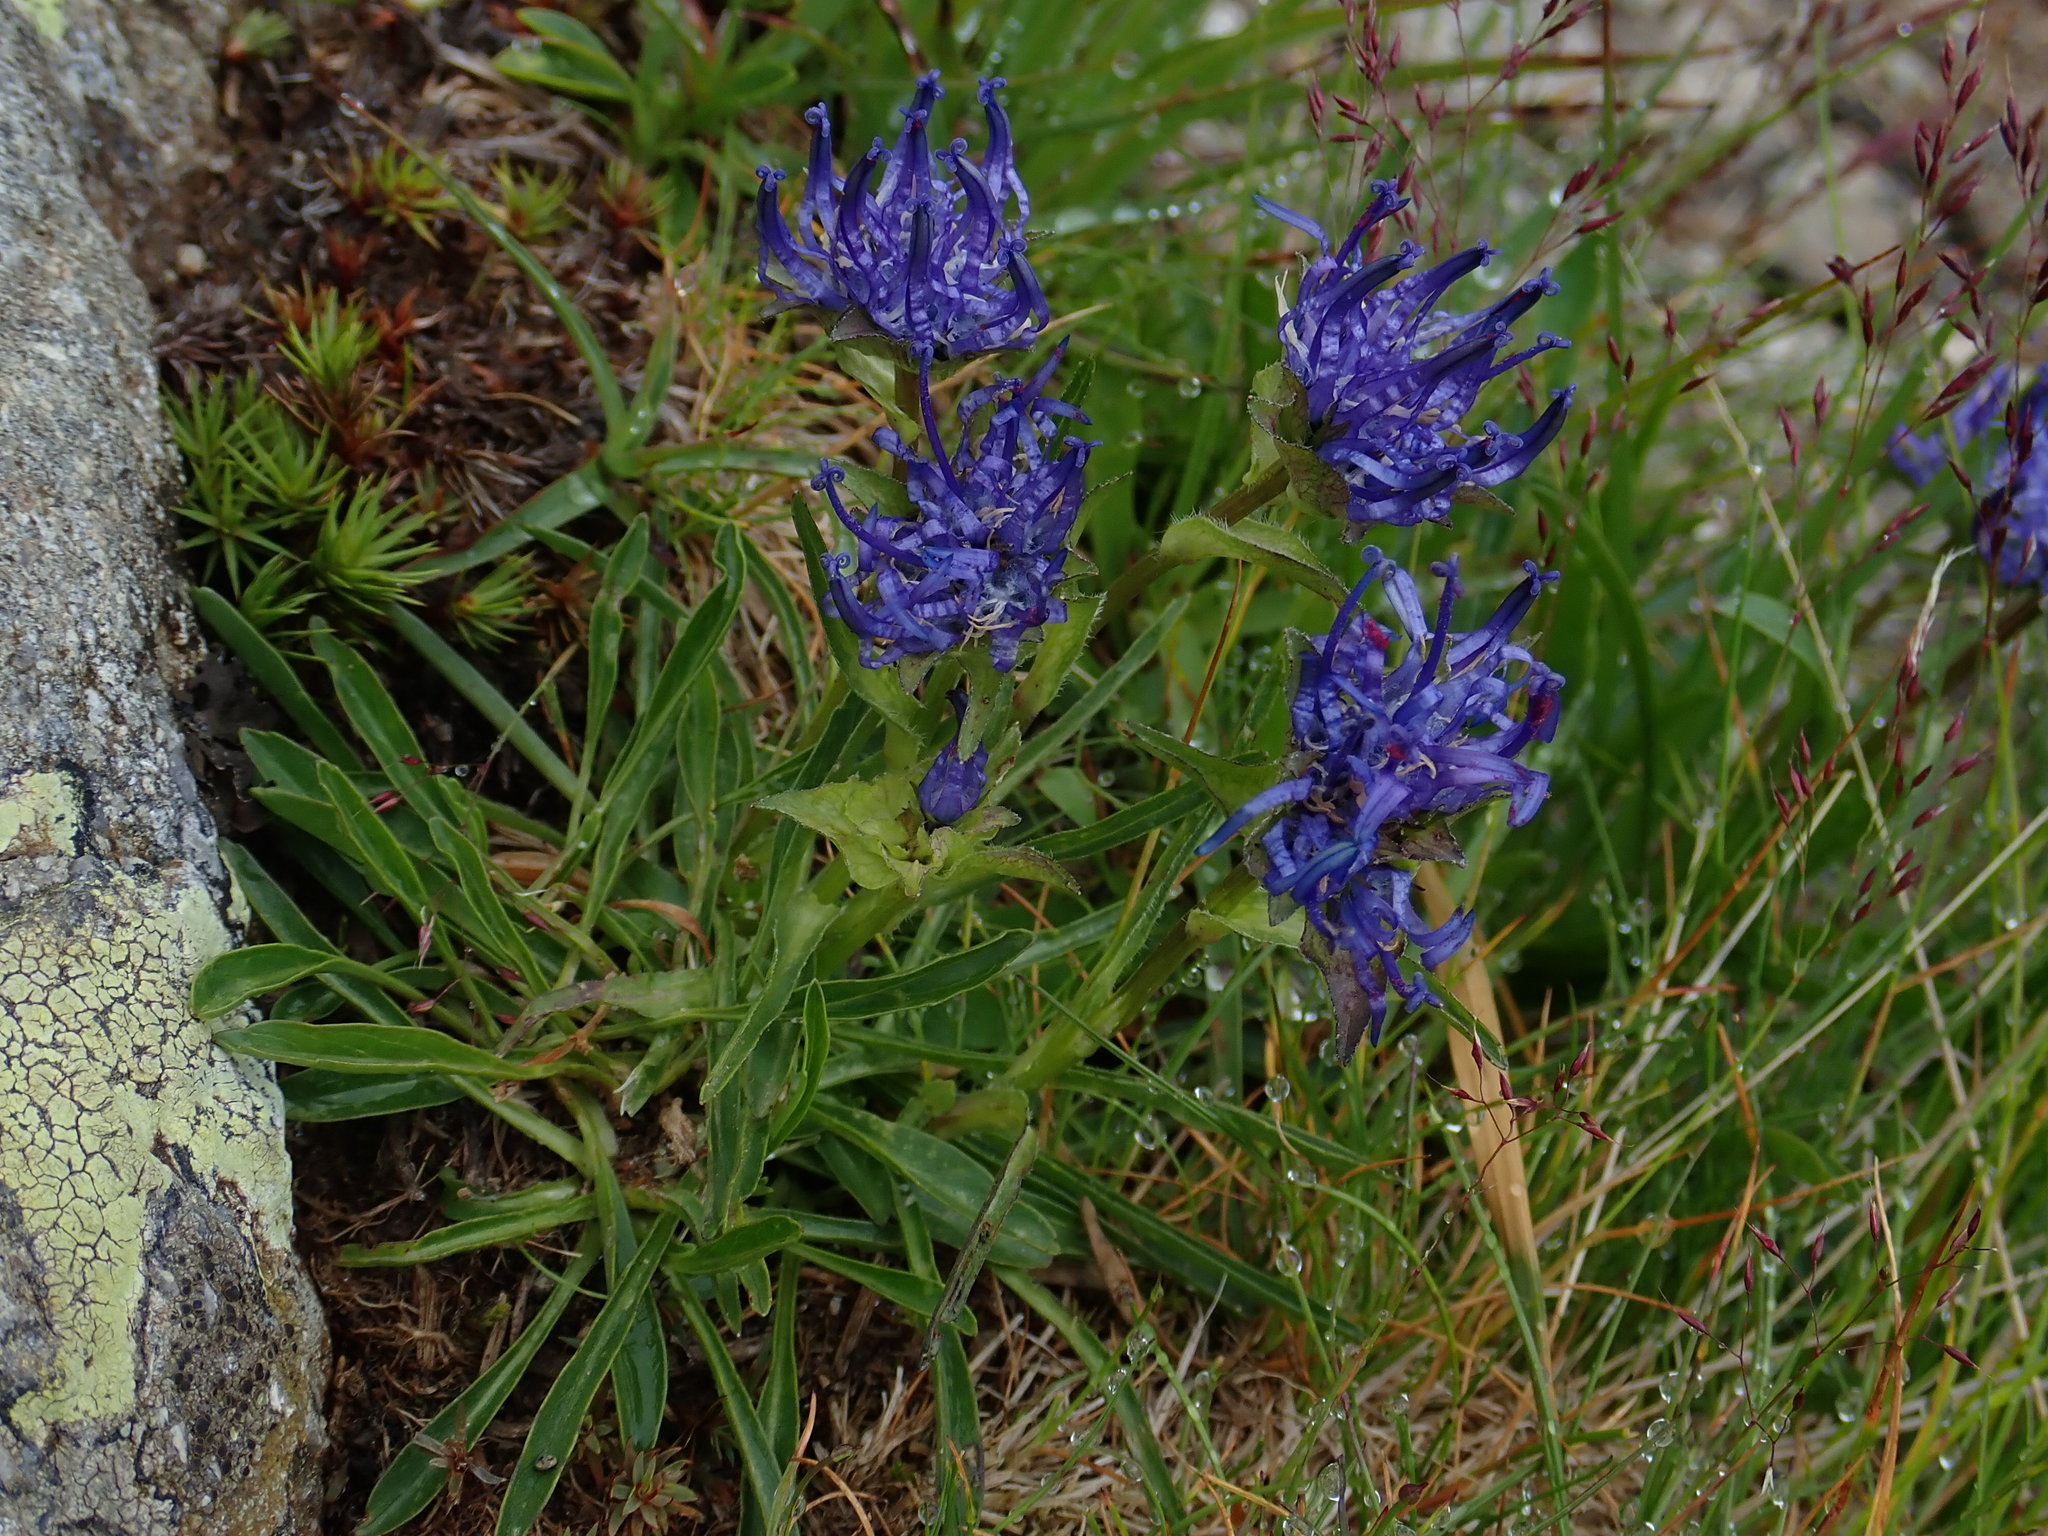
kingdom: Plantae
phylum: Tracheophyta
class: Magnoliopsida
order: Asterales
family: Campanulaceae
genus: Phyteuma
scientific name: Phyteuma confusum
